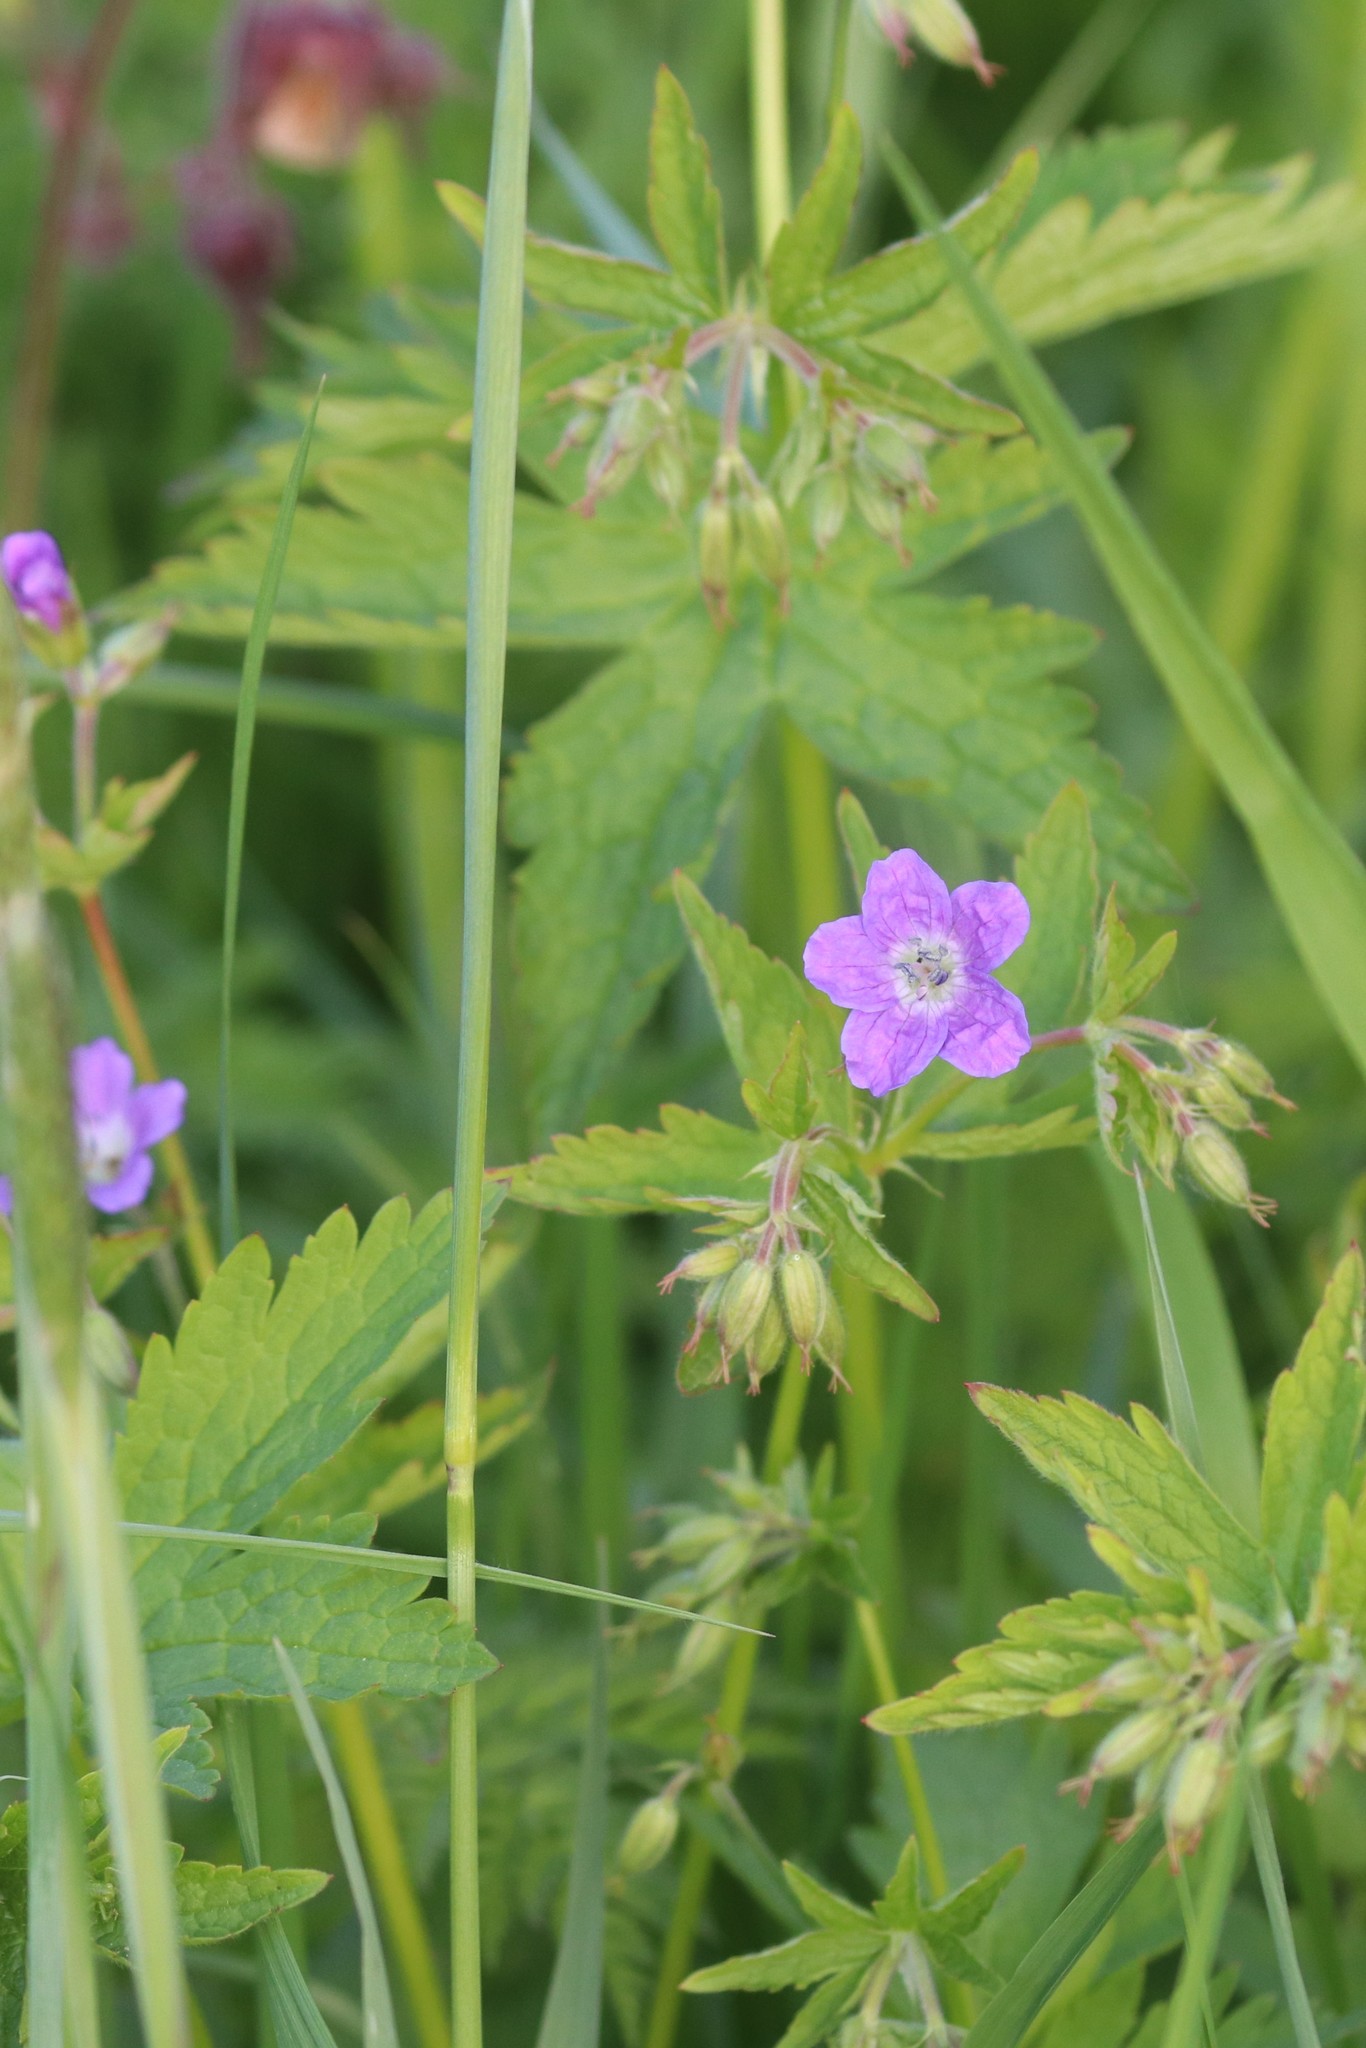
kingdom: Plantae
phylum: Tracheophyta
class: Magnoliopsida
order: Geraniales
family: Geraniaceae
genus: Geranium
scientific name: Geranium sylvaticum
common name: Wood crane's-bill
